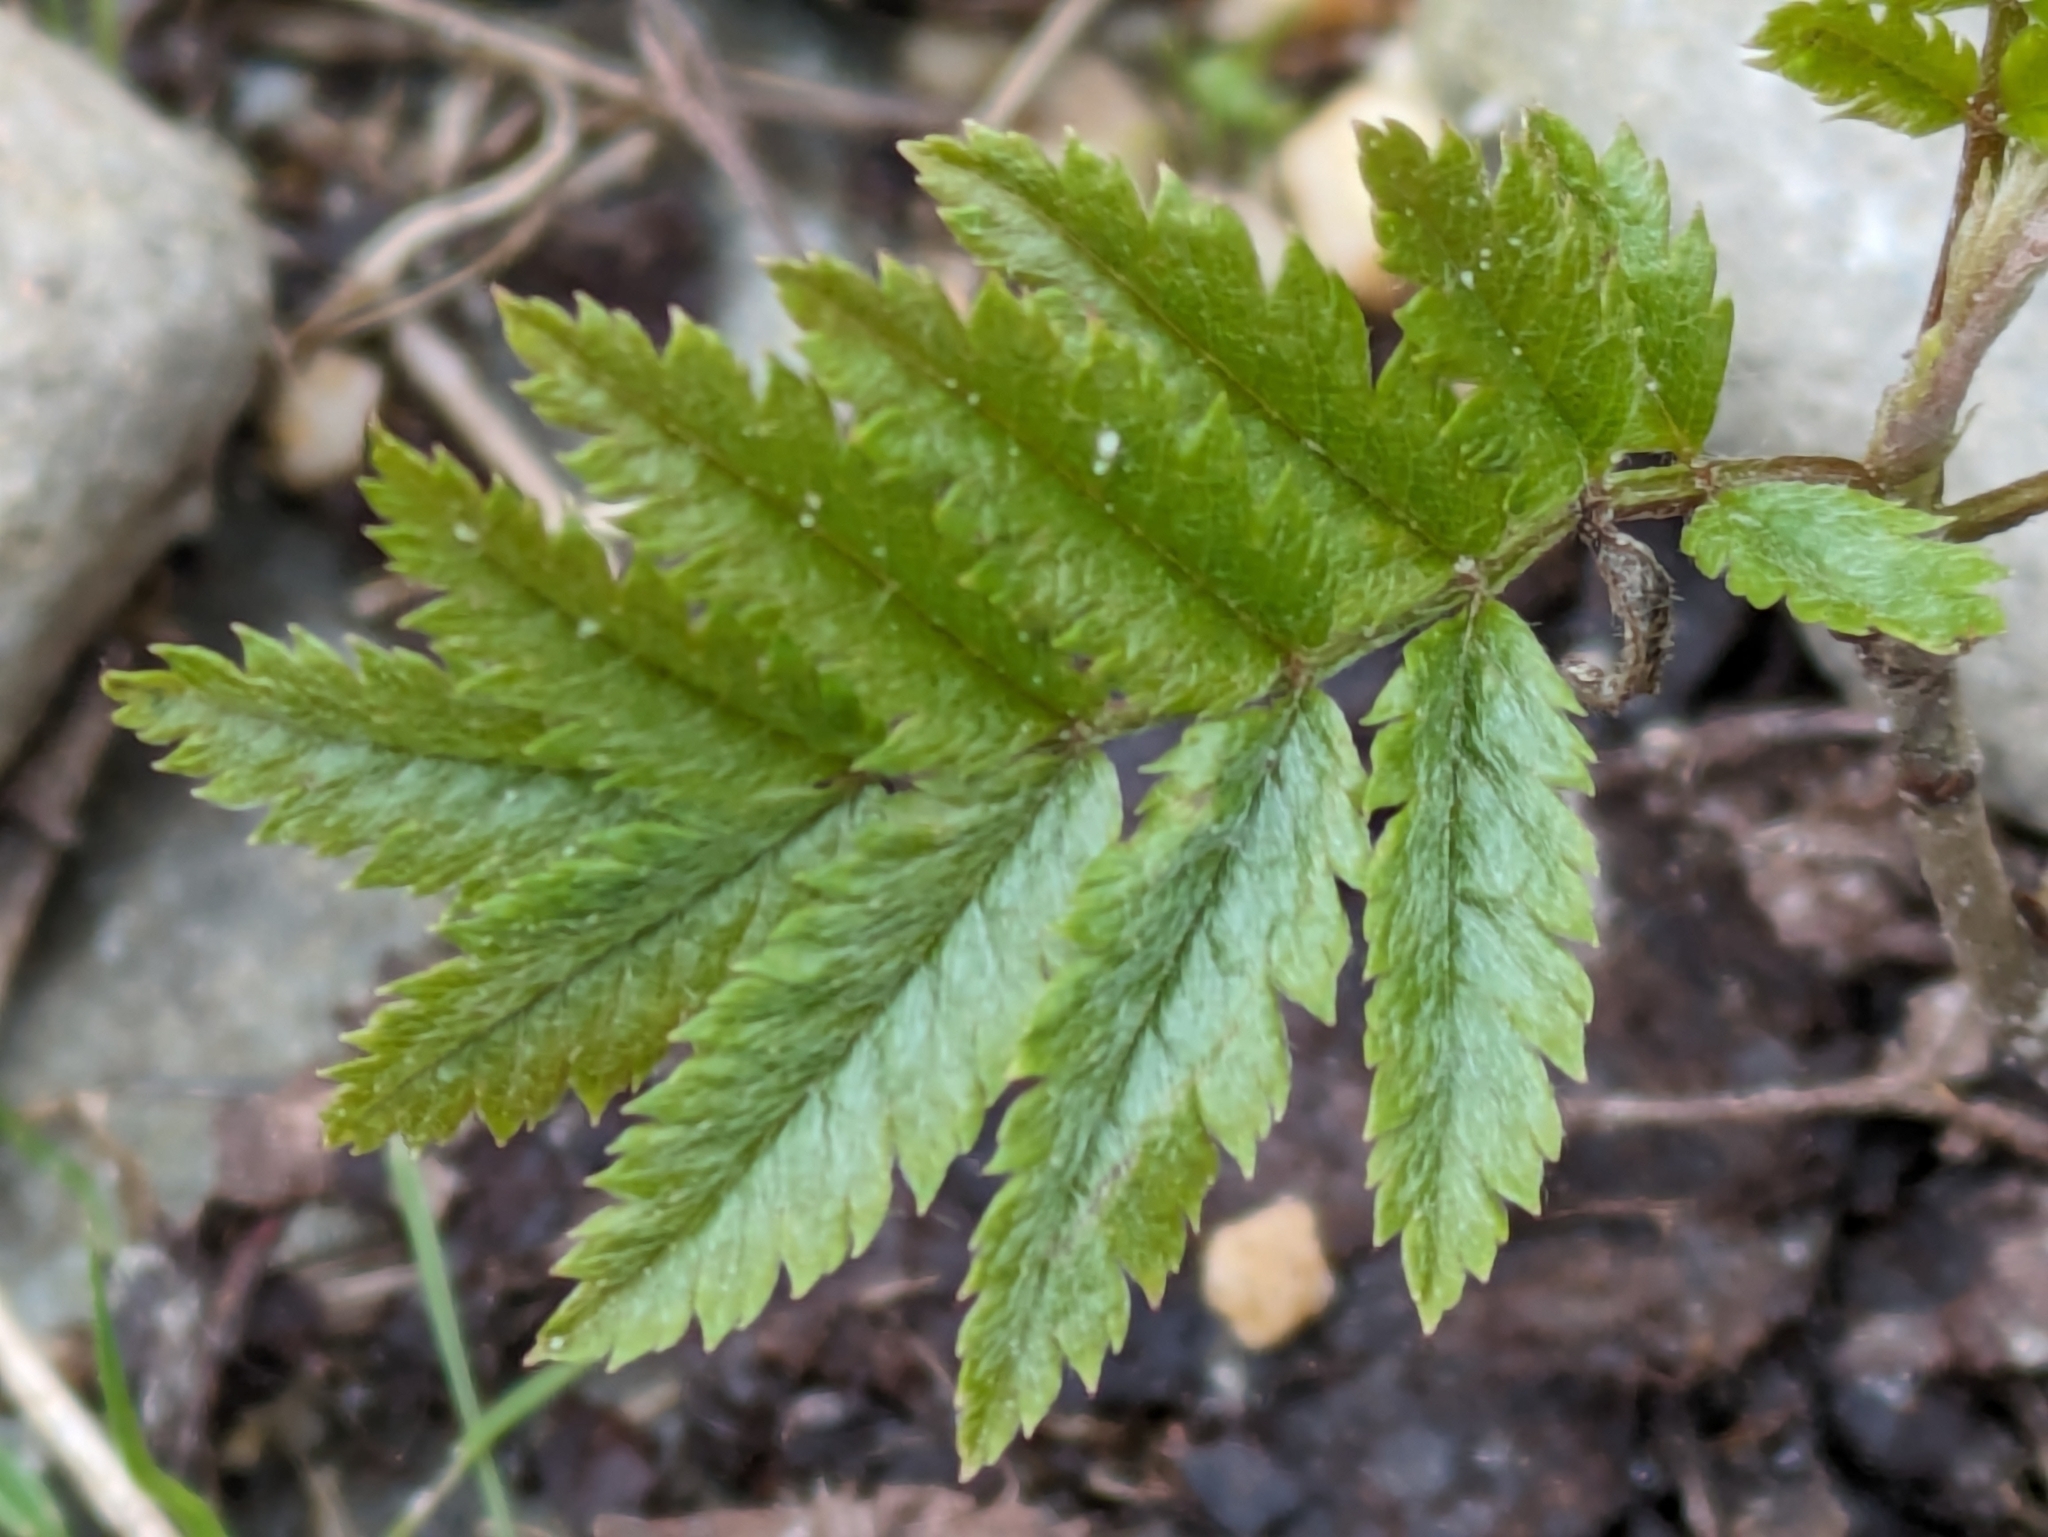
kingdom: Plantae
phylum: Tracheophyta
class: Magnoliopsida
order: Rosales
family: Rosaceae
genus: Sorbus
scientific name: Sorbus aucuparia
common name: Rowan
